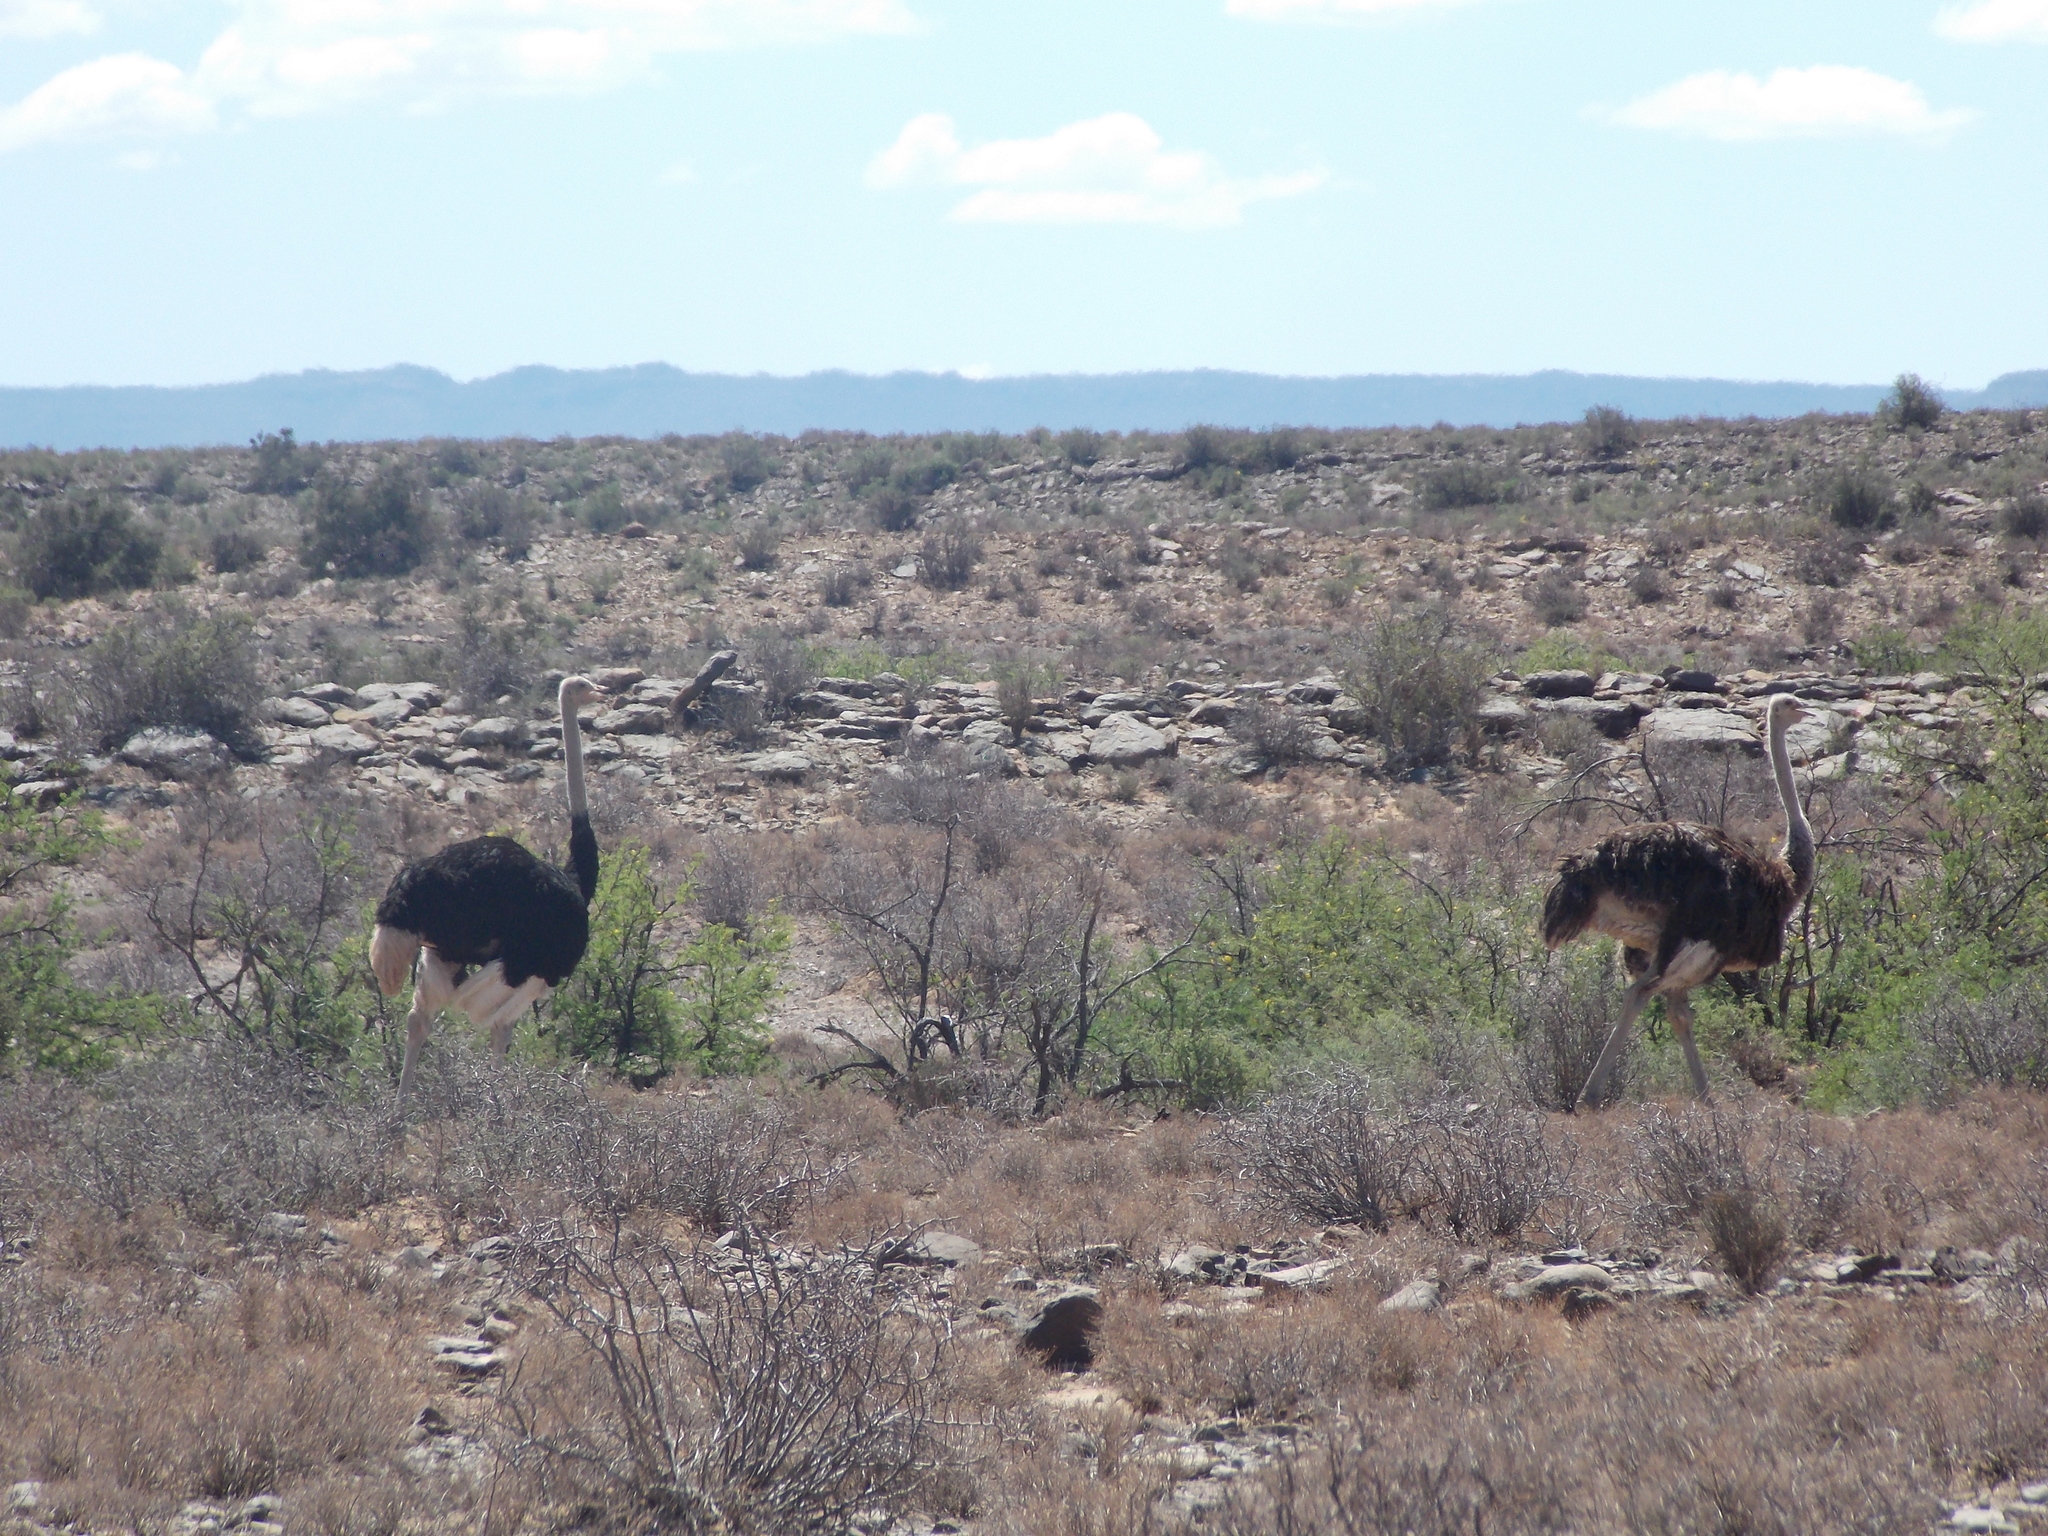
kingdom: Animalia
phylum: Chordata
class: Aves
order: Struthioniformes
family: Struthionidae
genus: Struthio
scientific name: Struthio camelus
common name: Common ostrich
